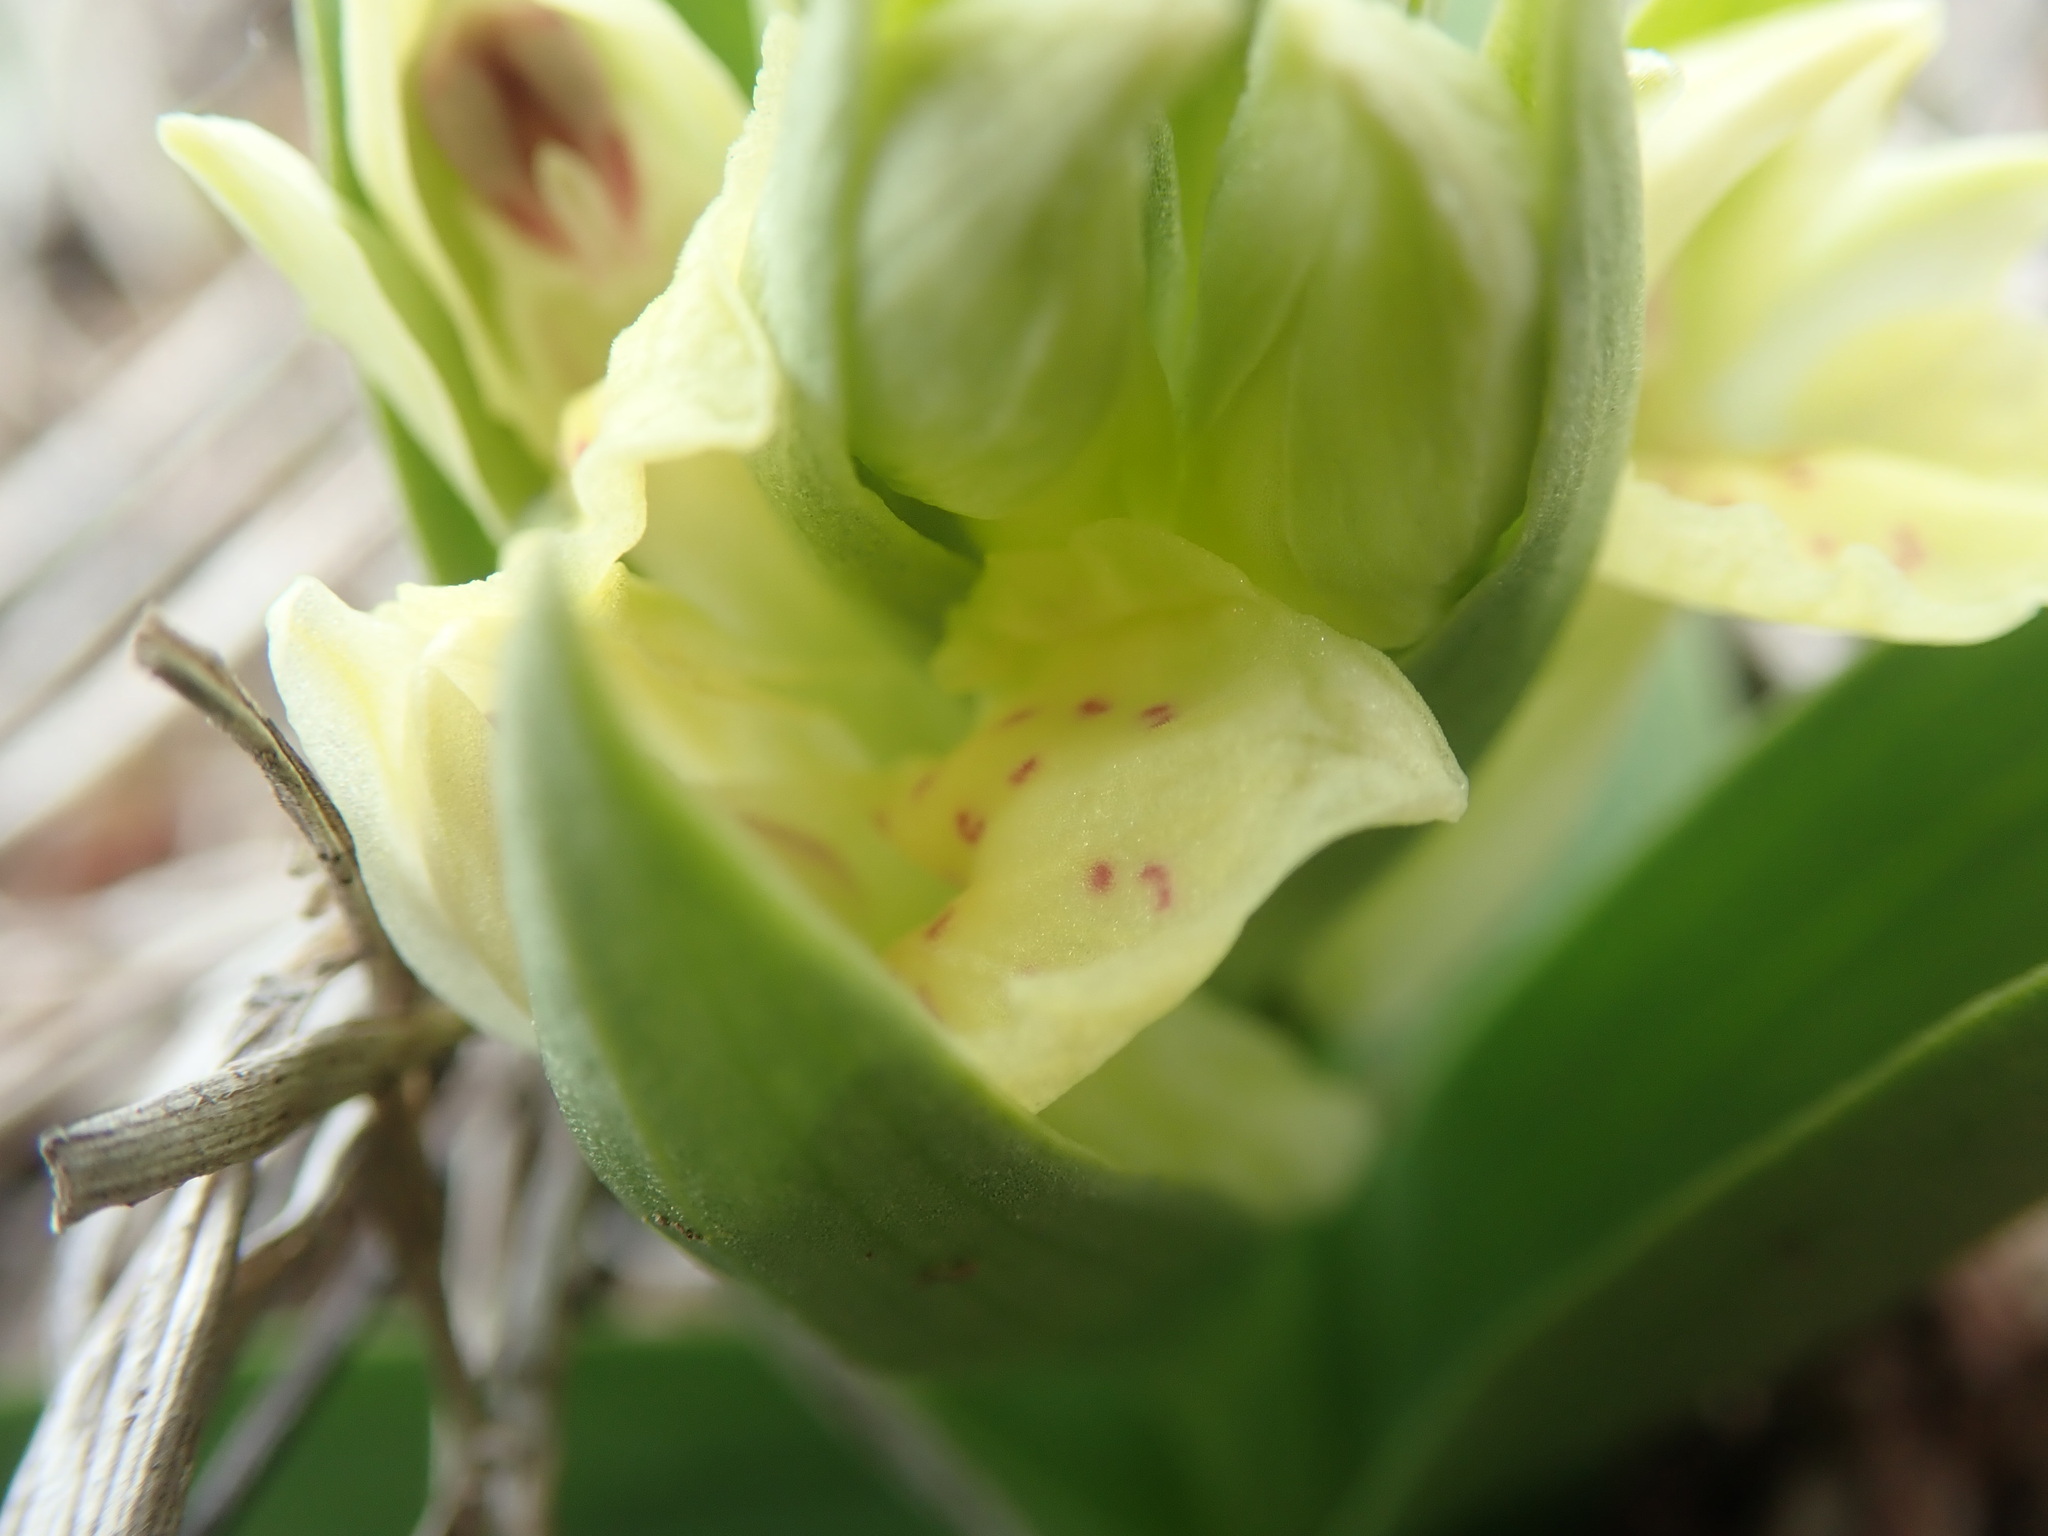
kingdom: Plantae
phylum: Tracheophyta
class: Liliopsida
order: Asparagales
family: Orchidaceae
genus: Dactylorhiza
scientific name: Dactylorhiza sambucina
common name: Elder-flowered orchid
